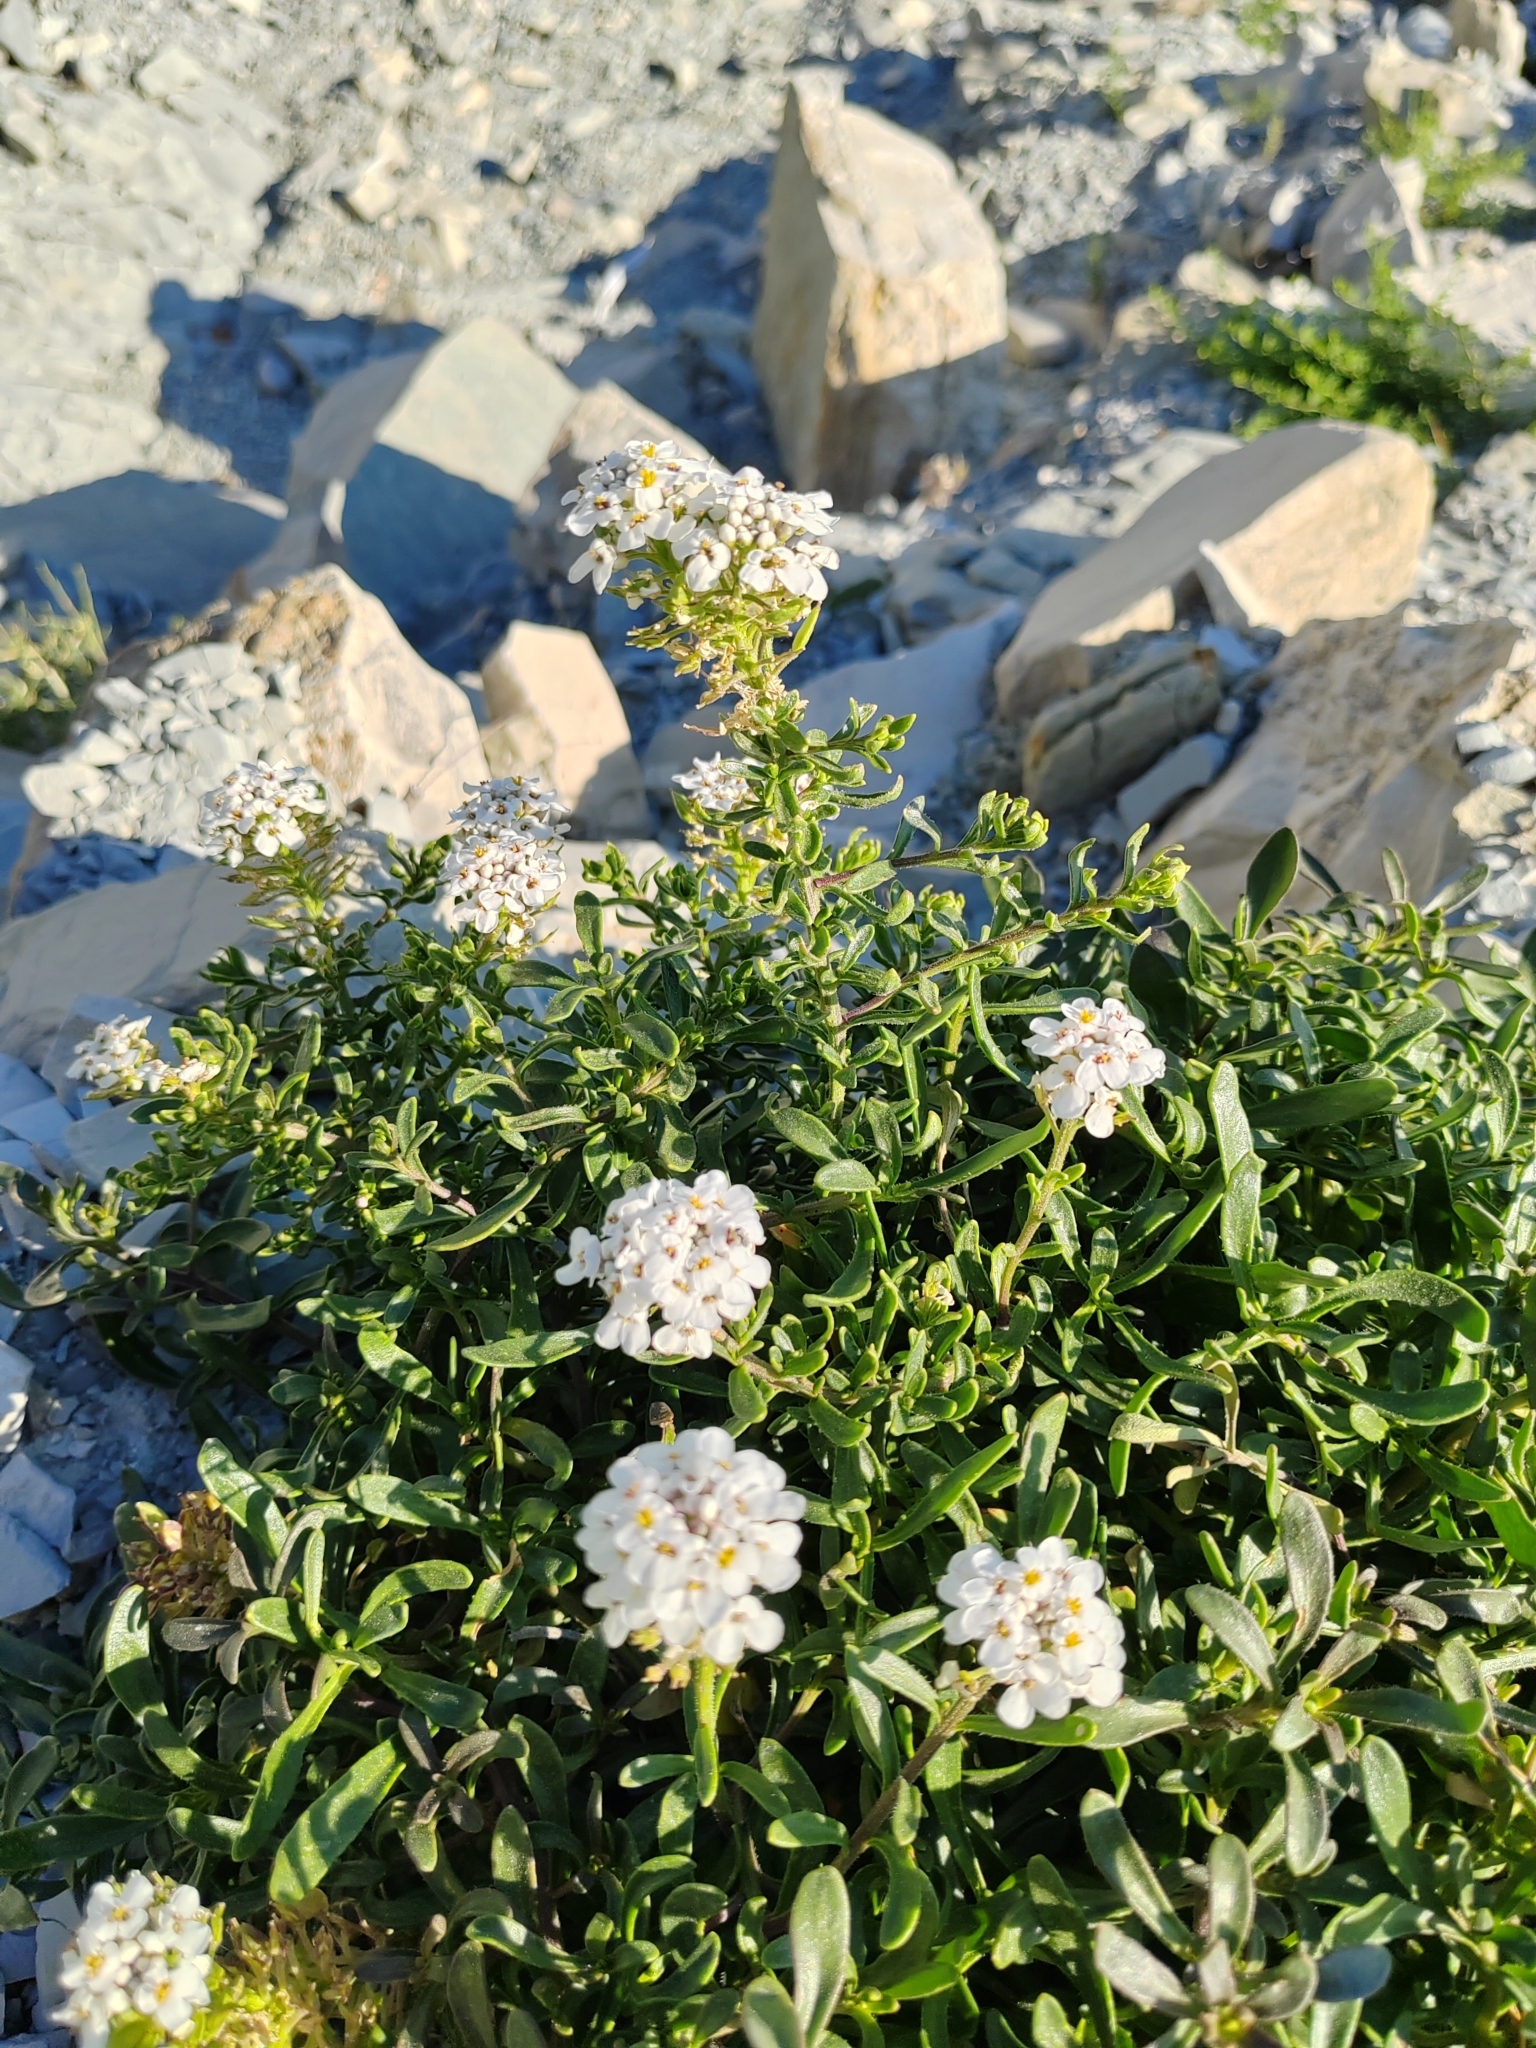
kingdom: Plantae
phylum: Tracheophyta
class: Magnoliopsida
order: Brassicales
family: Brassicaceae
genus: Iberis
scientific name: Iberis simplex
